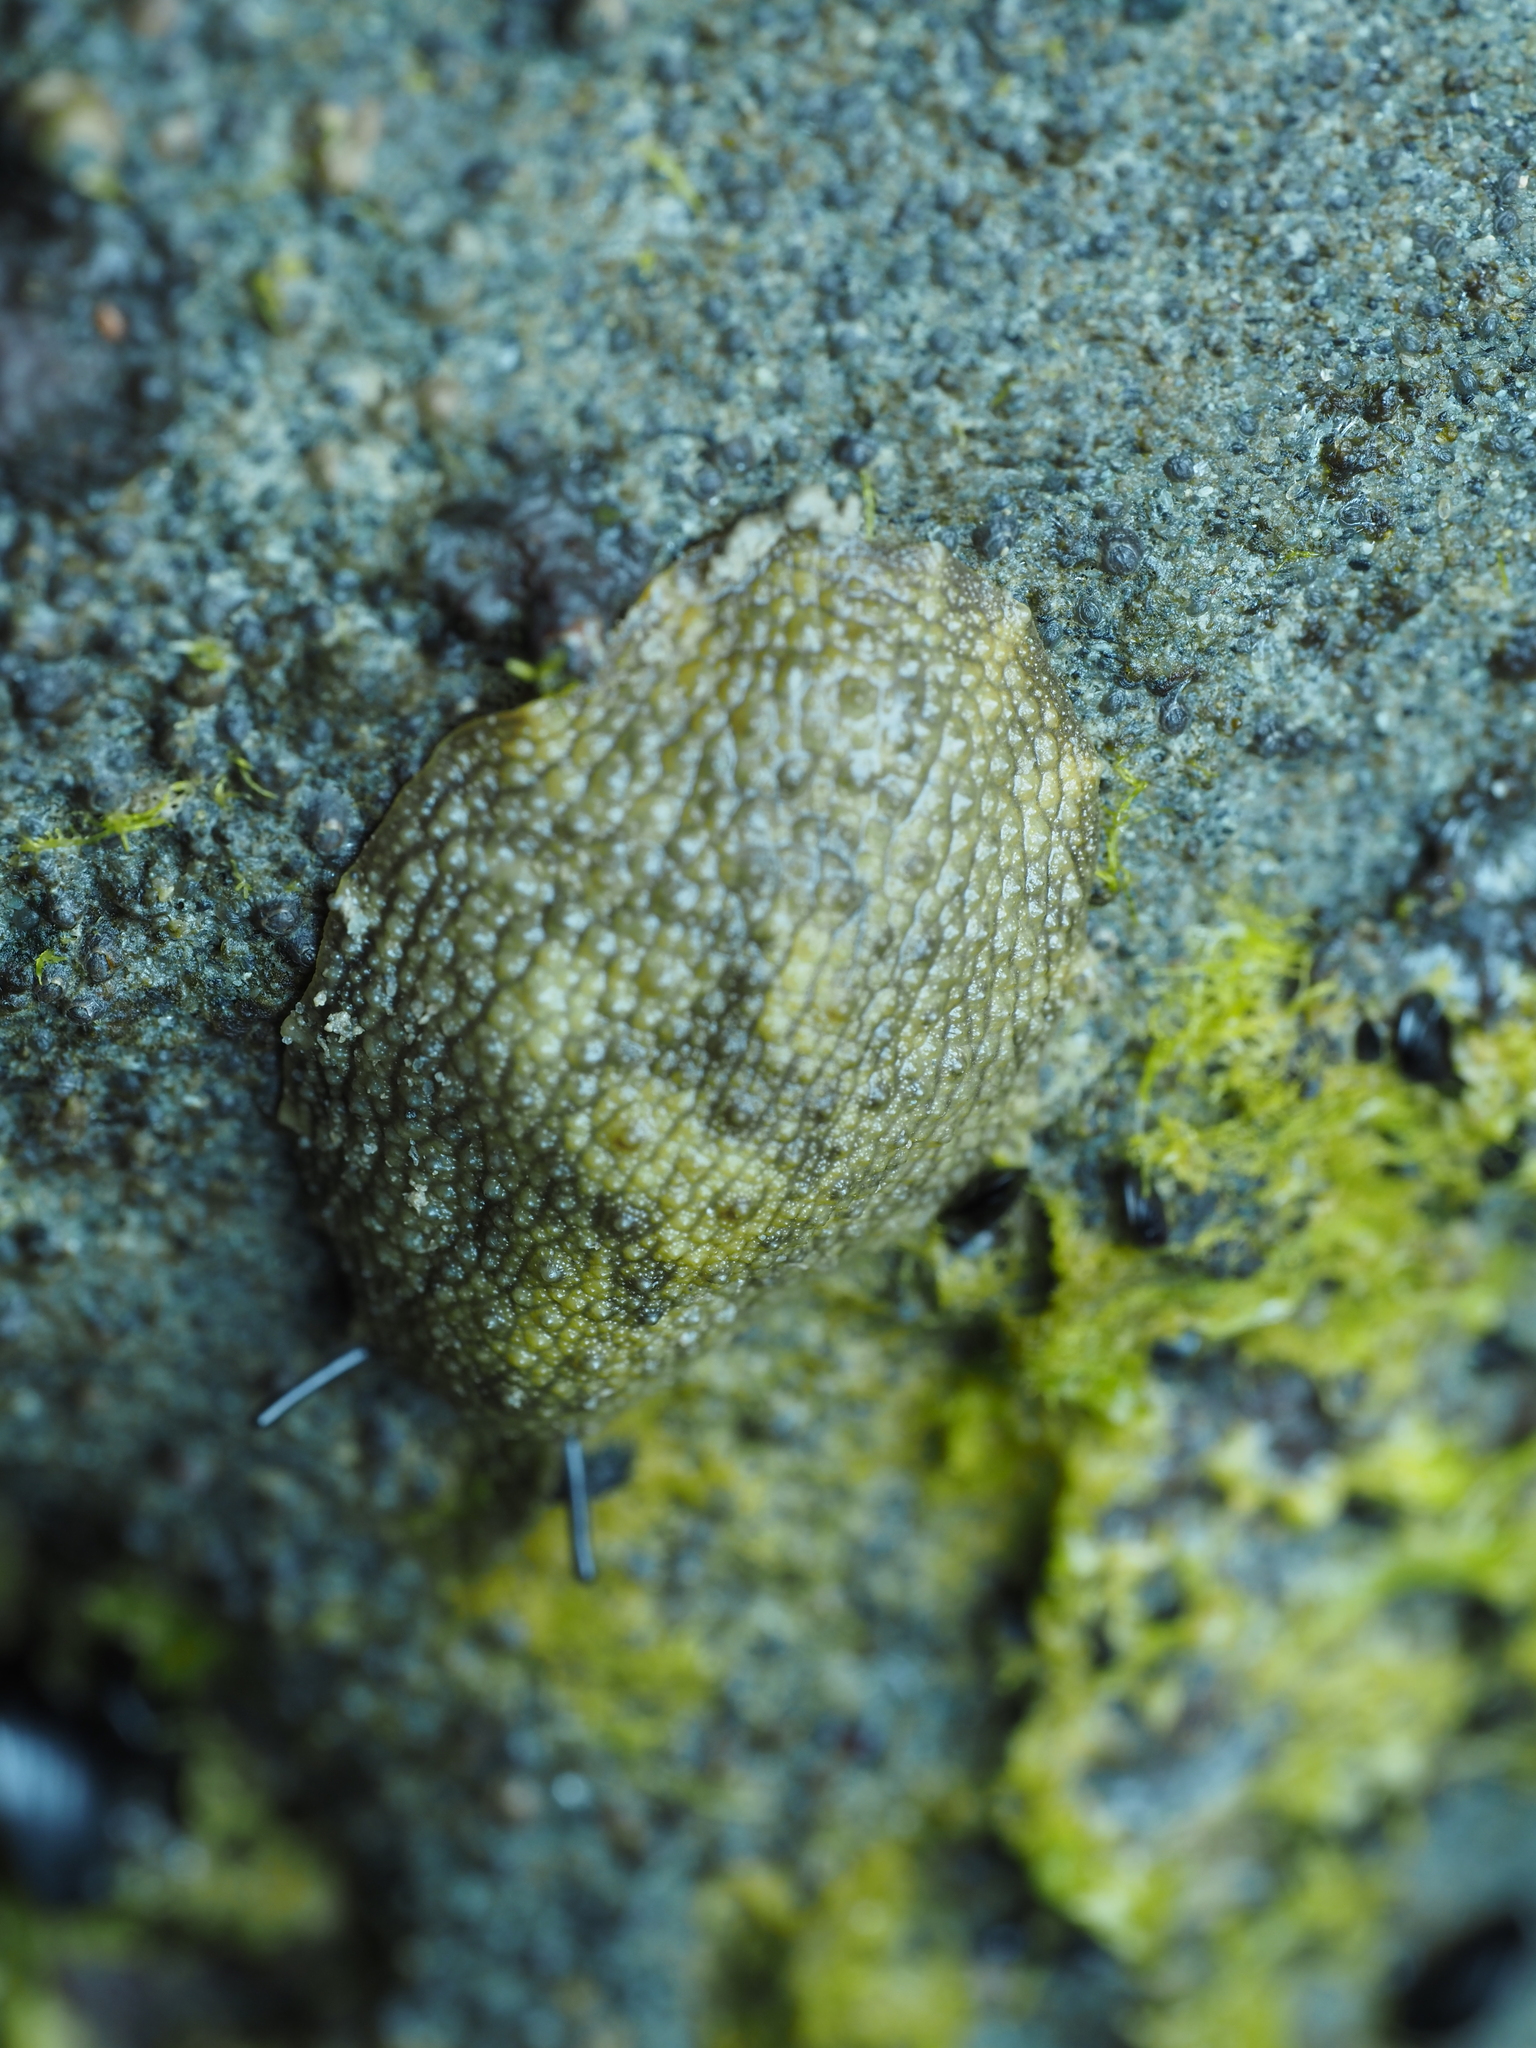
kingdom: Animalia
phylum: Mollusca
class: Gastropoda
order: Systellommatophora
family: Onchidiidae
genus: Onchidella
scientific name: Onchidella nigricans
